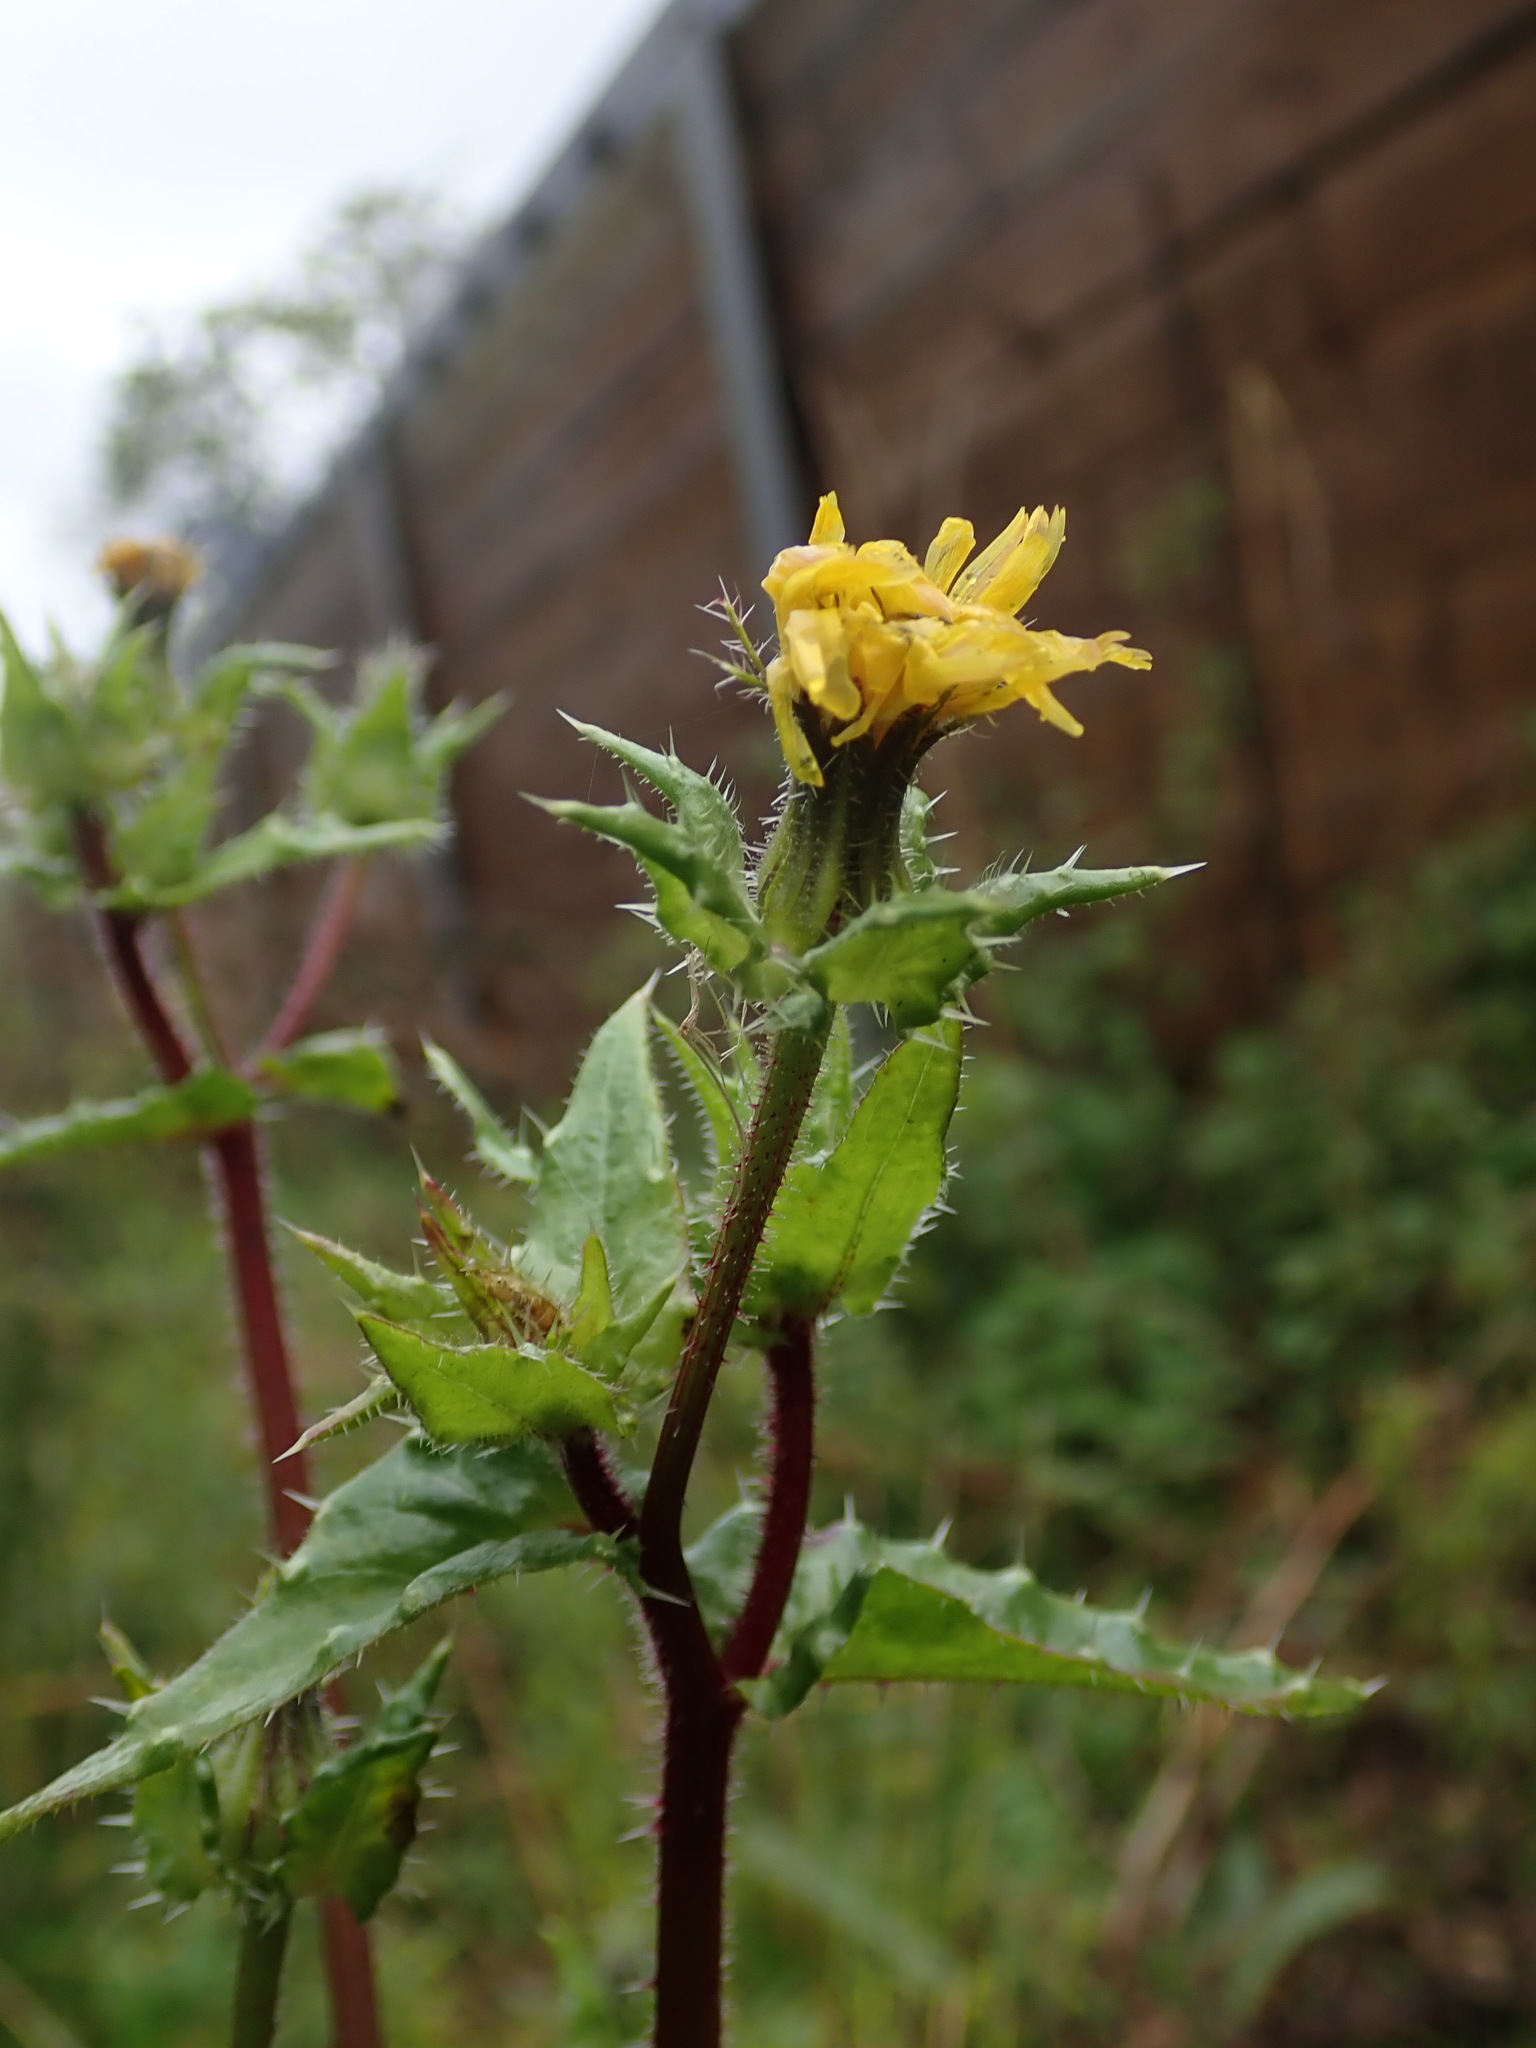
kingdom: Plantae
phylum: Tracheophyta
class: Magnoliopsida
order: Asterales
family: Asteraceae
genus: Helminthotheca
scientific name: Helminthotheca echioides
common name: Ox-tongue
